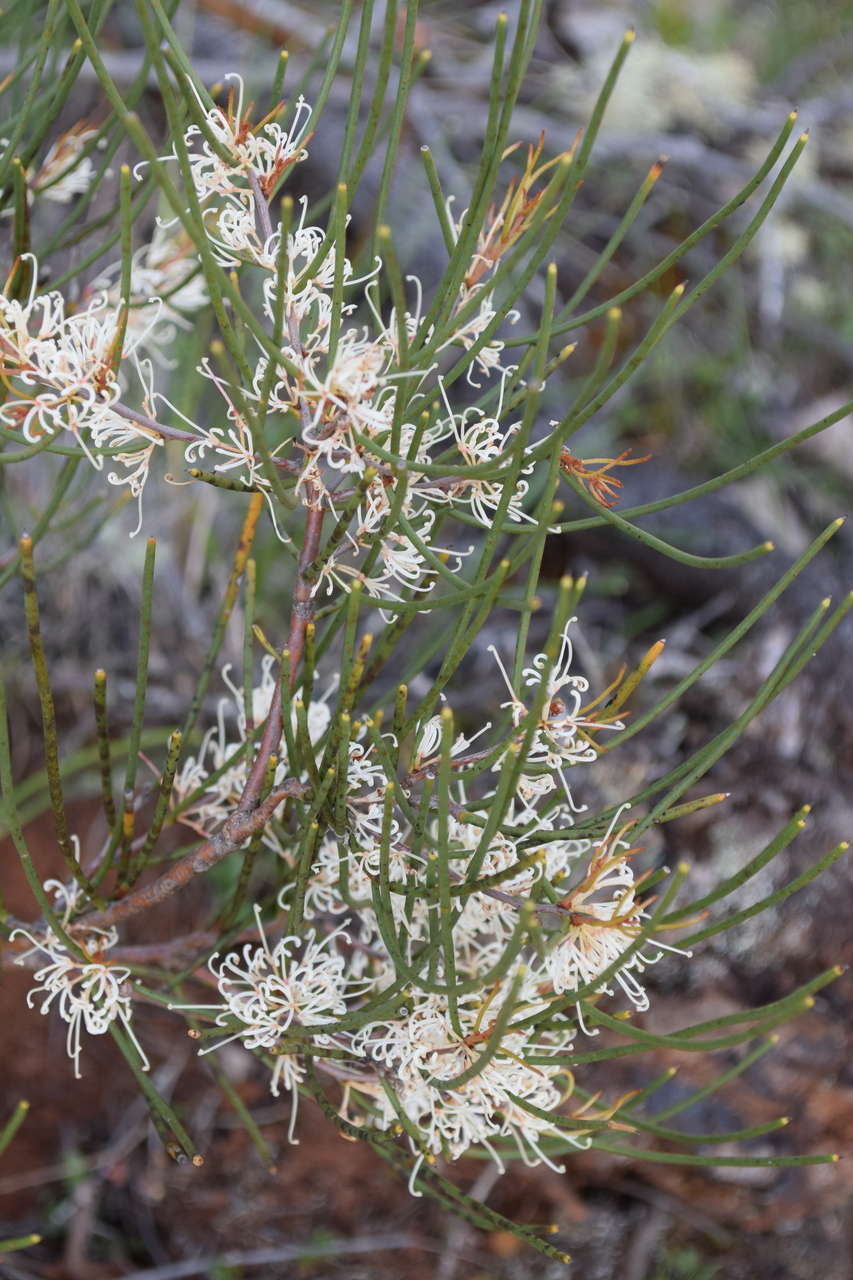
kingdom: Plantae
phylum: Tracheophyta
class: Magnoliopsida
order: Proteales
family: Proteaceae
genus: Hakea
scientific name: Hakea rostrata
